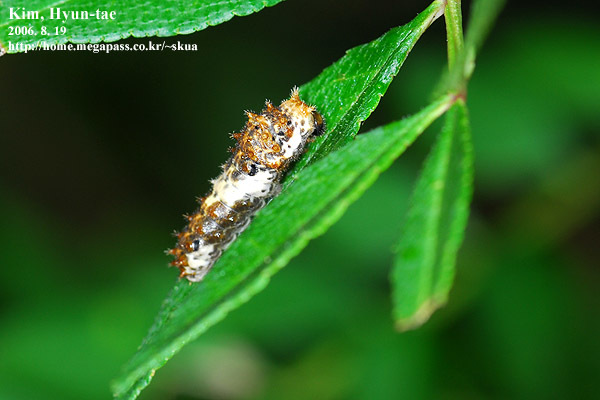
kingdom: Animalia
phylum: Arthropoda
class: Insecta
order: Lepidoptera
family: Papilionidae
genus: Papilio
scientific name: Papilio xuthus
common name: Asian swallowtail
